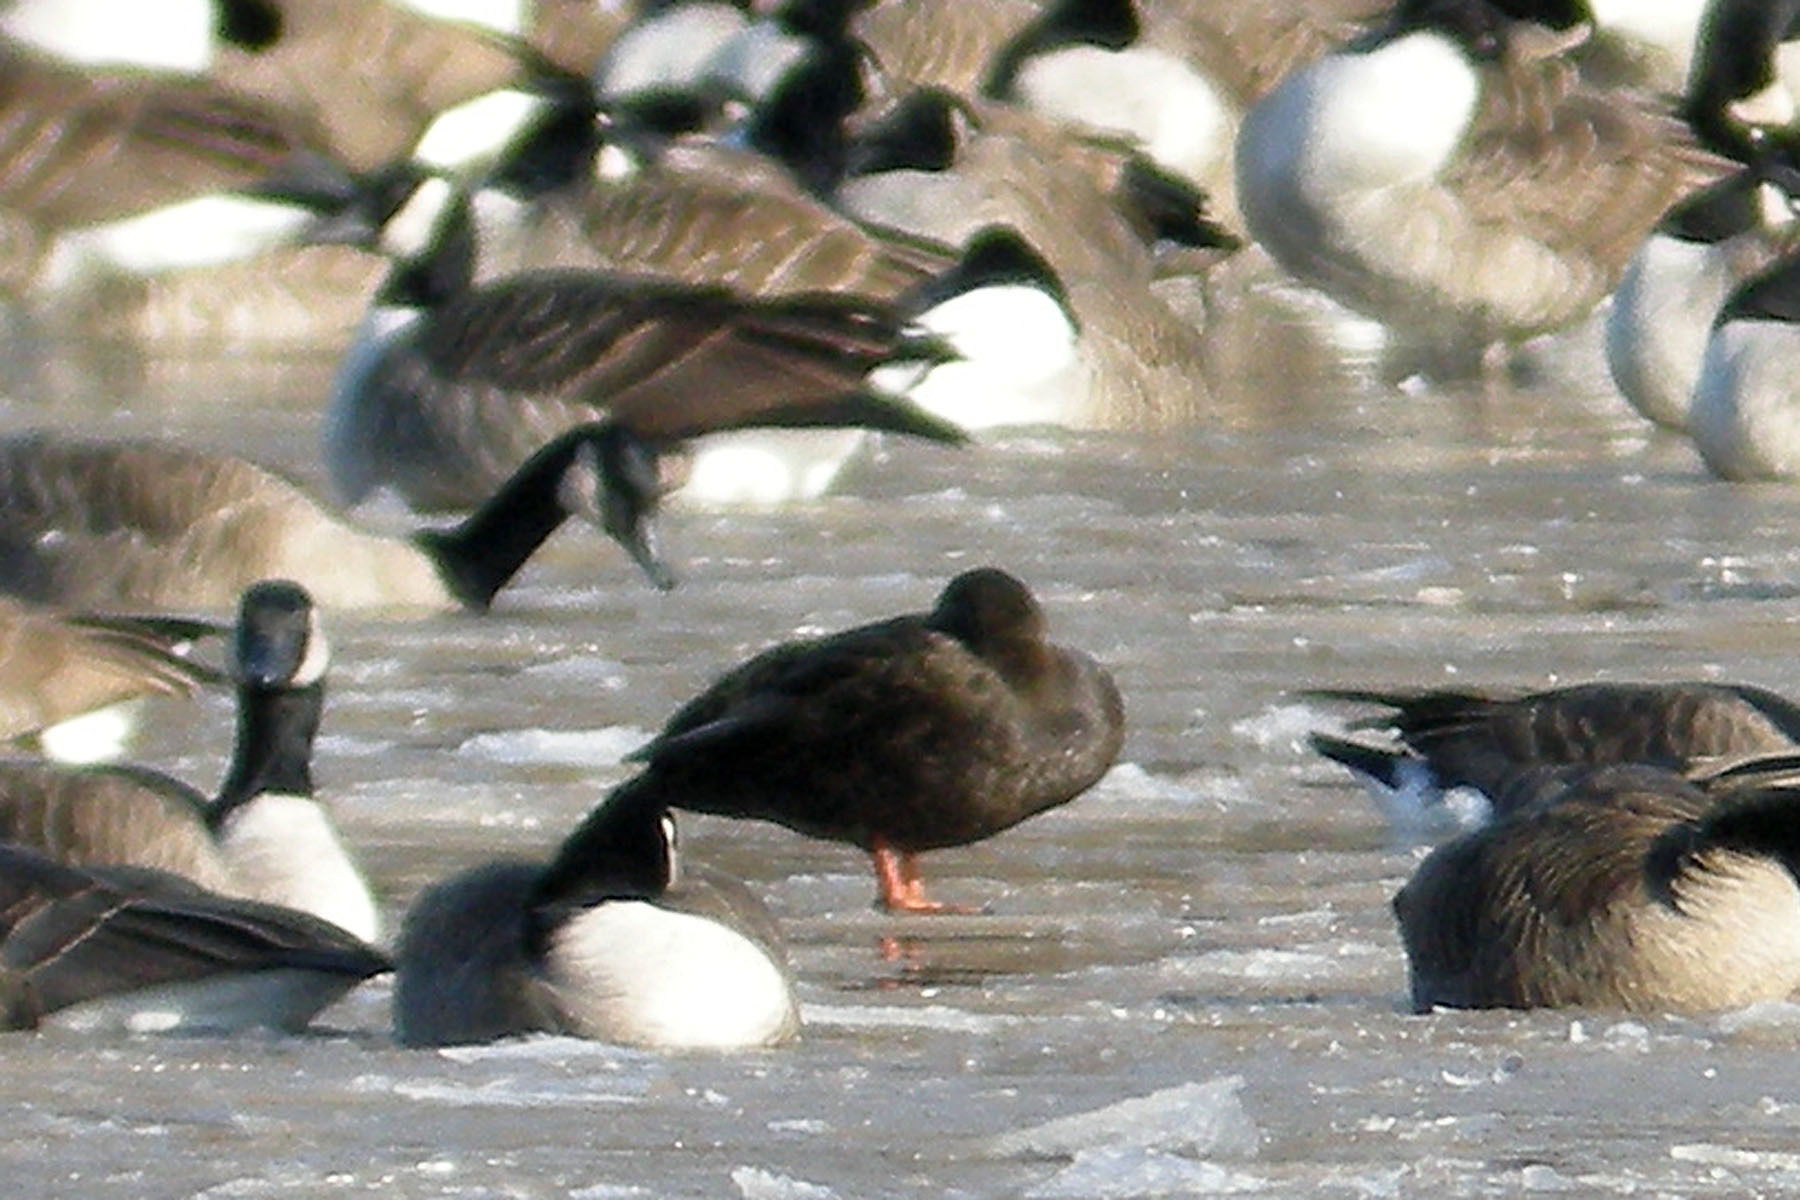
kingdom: Animalia
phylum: Chordata
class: Aves
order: Anseriformes
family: Anatidae
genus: Anas
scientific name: Anas rubripes
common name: American black duck
